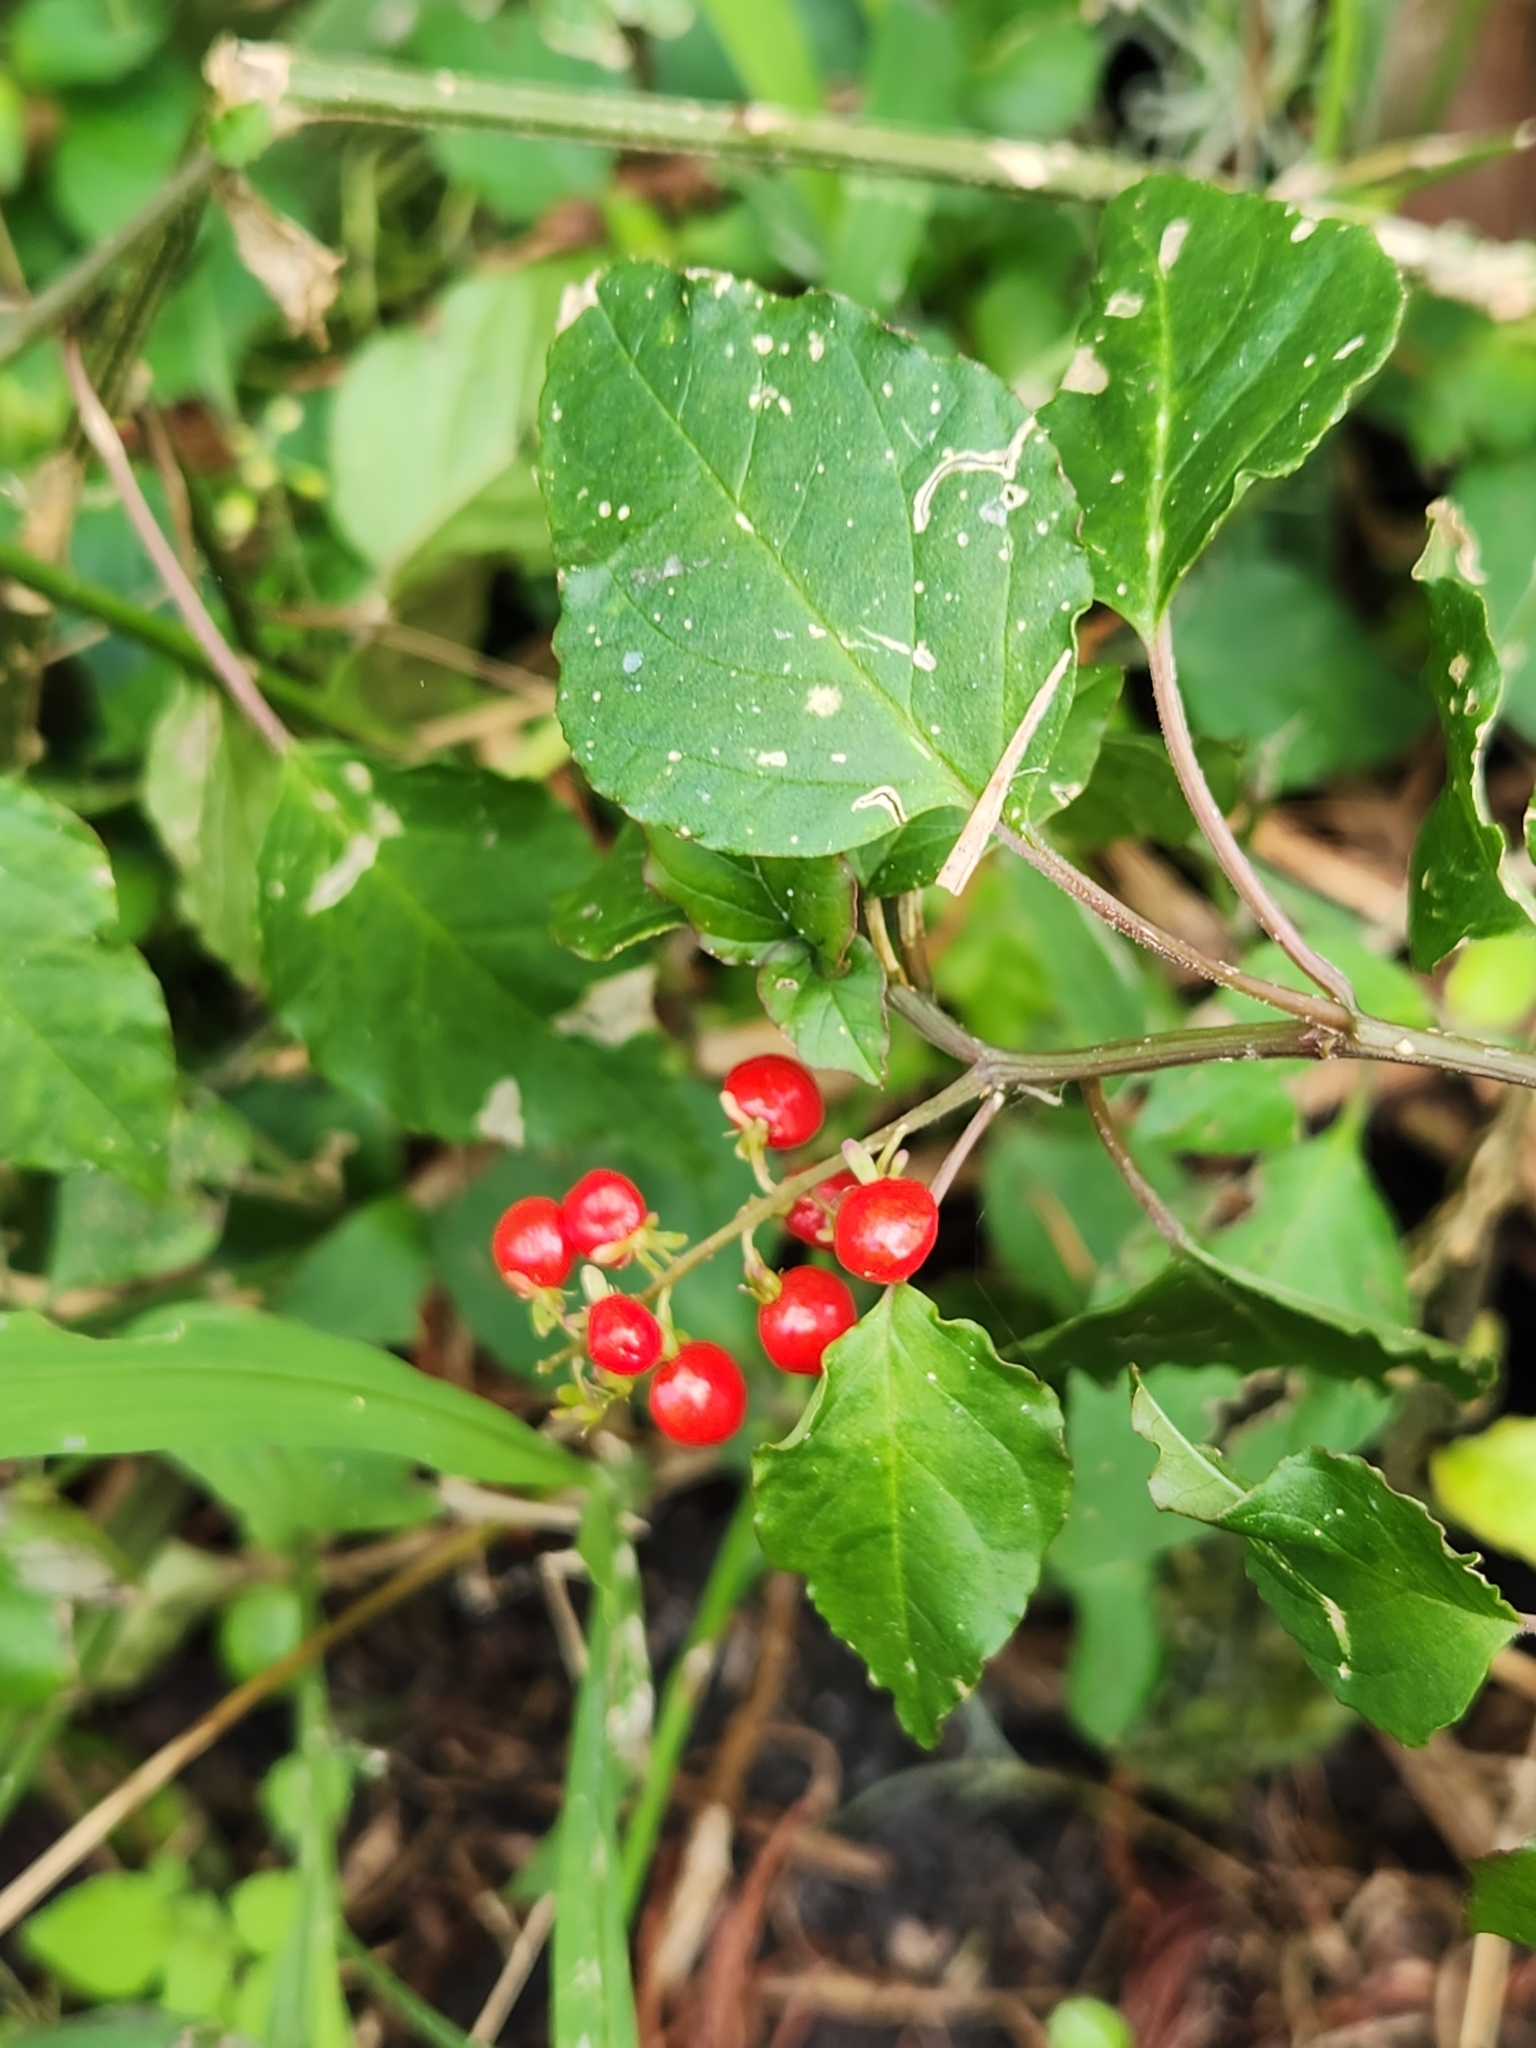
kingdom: Plantae
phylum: Tracheophyta
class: Magnoliopsida
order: Caryophyllales
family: Phytolaccaceae
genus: Rivina
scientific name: Rivina humilis
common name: Rougeplant
